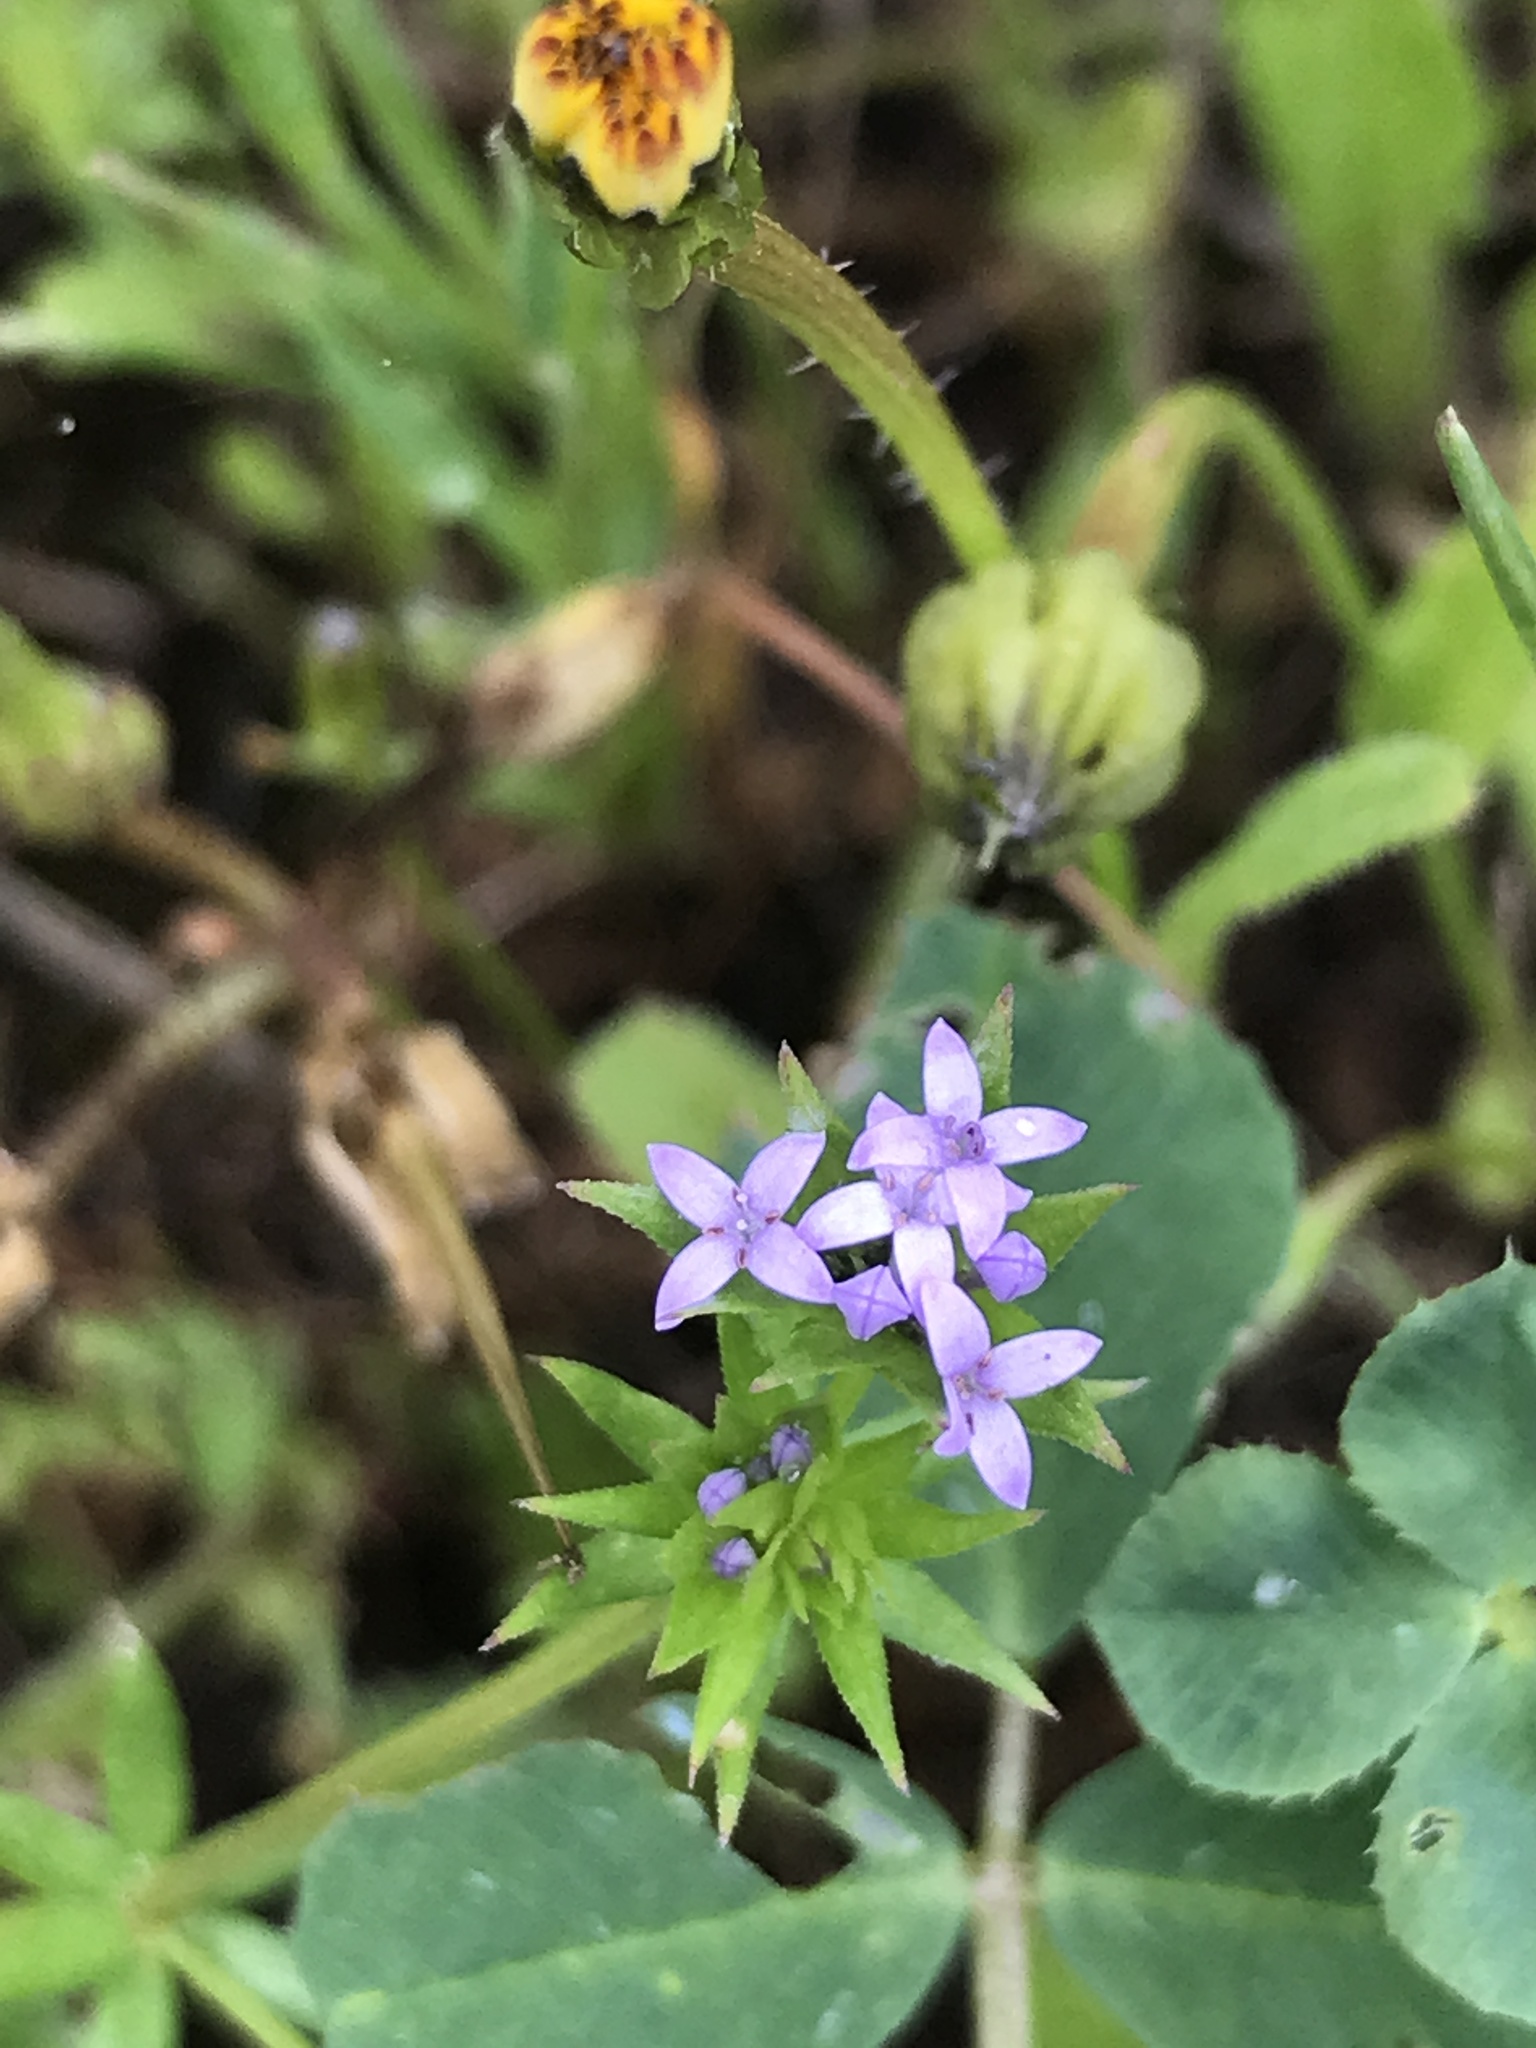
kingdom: Plantae
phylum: Tracheophyta
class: Magnoliopsida
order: Gentianales
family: Rubiaceae
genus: Sherardia
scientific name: Sherardia arvensis
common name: Field madder
